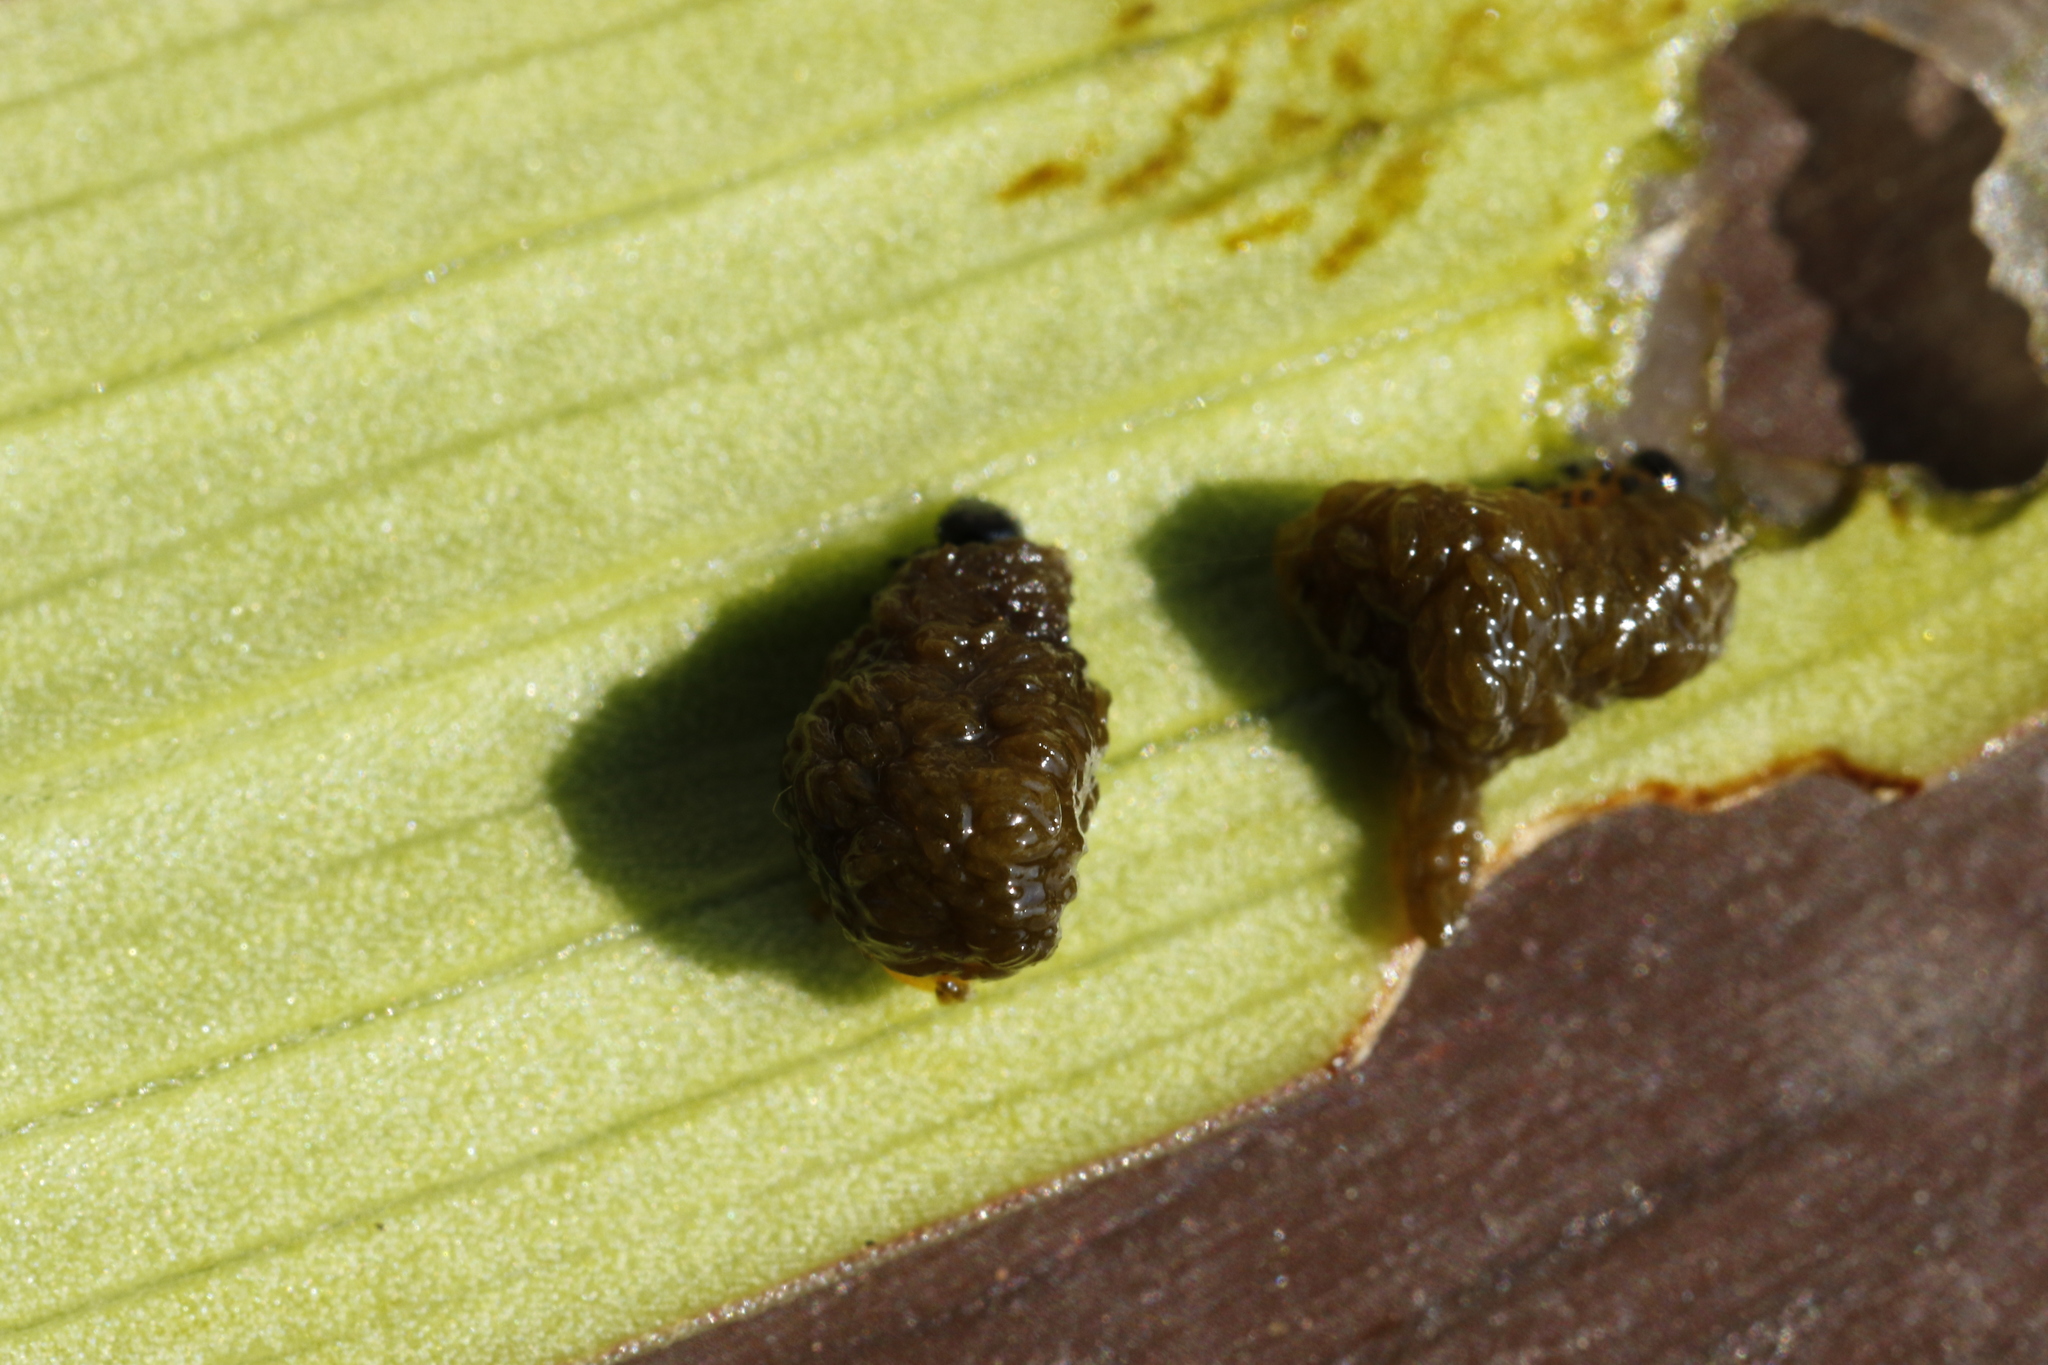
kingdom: Animalia
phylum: Arthropoda
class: Insecta
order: Coleoptera
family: Chrysomelidae
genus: Lilioceris
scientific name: Lilioceris lilii
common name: Lily beetle
